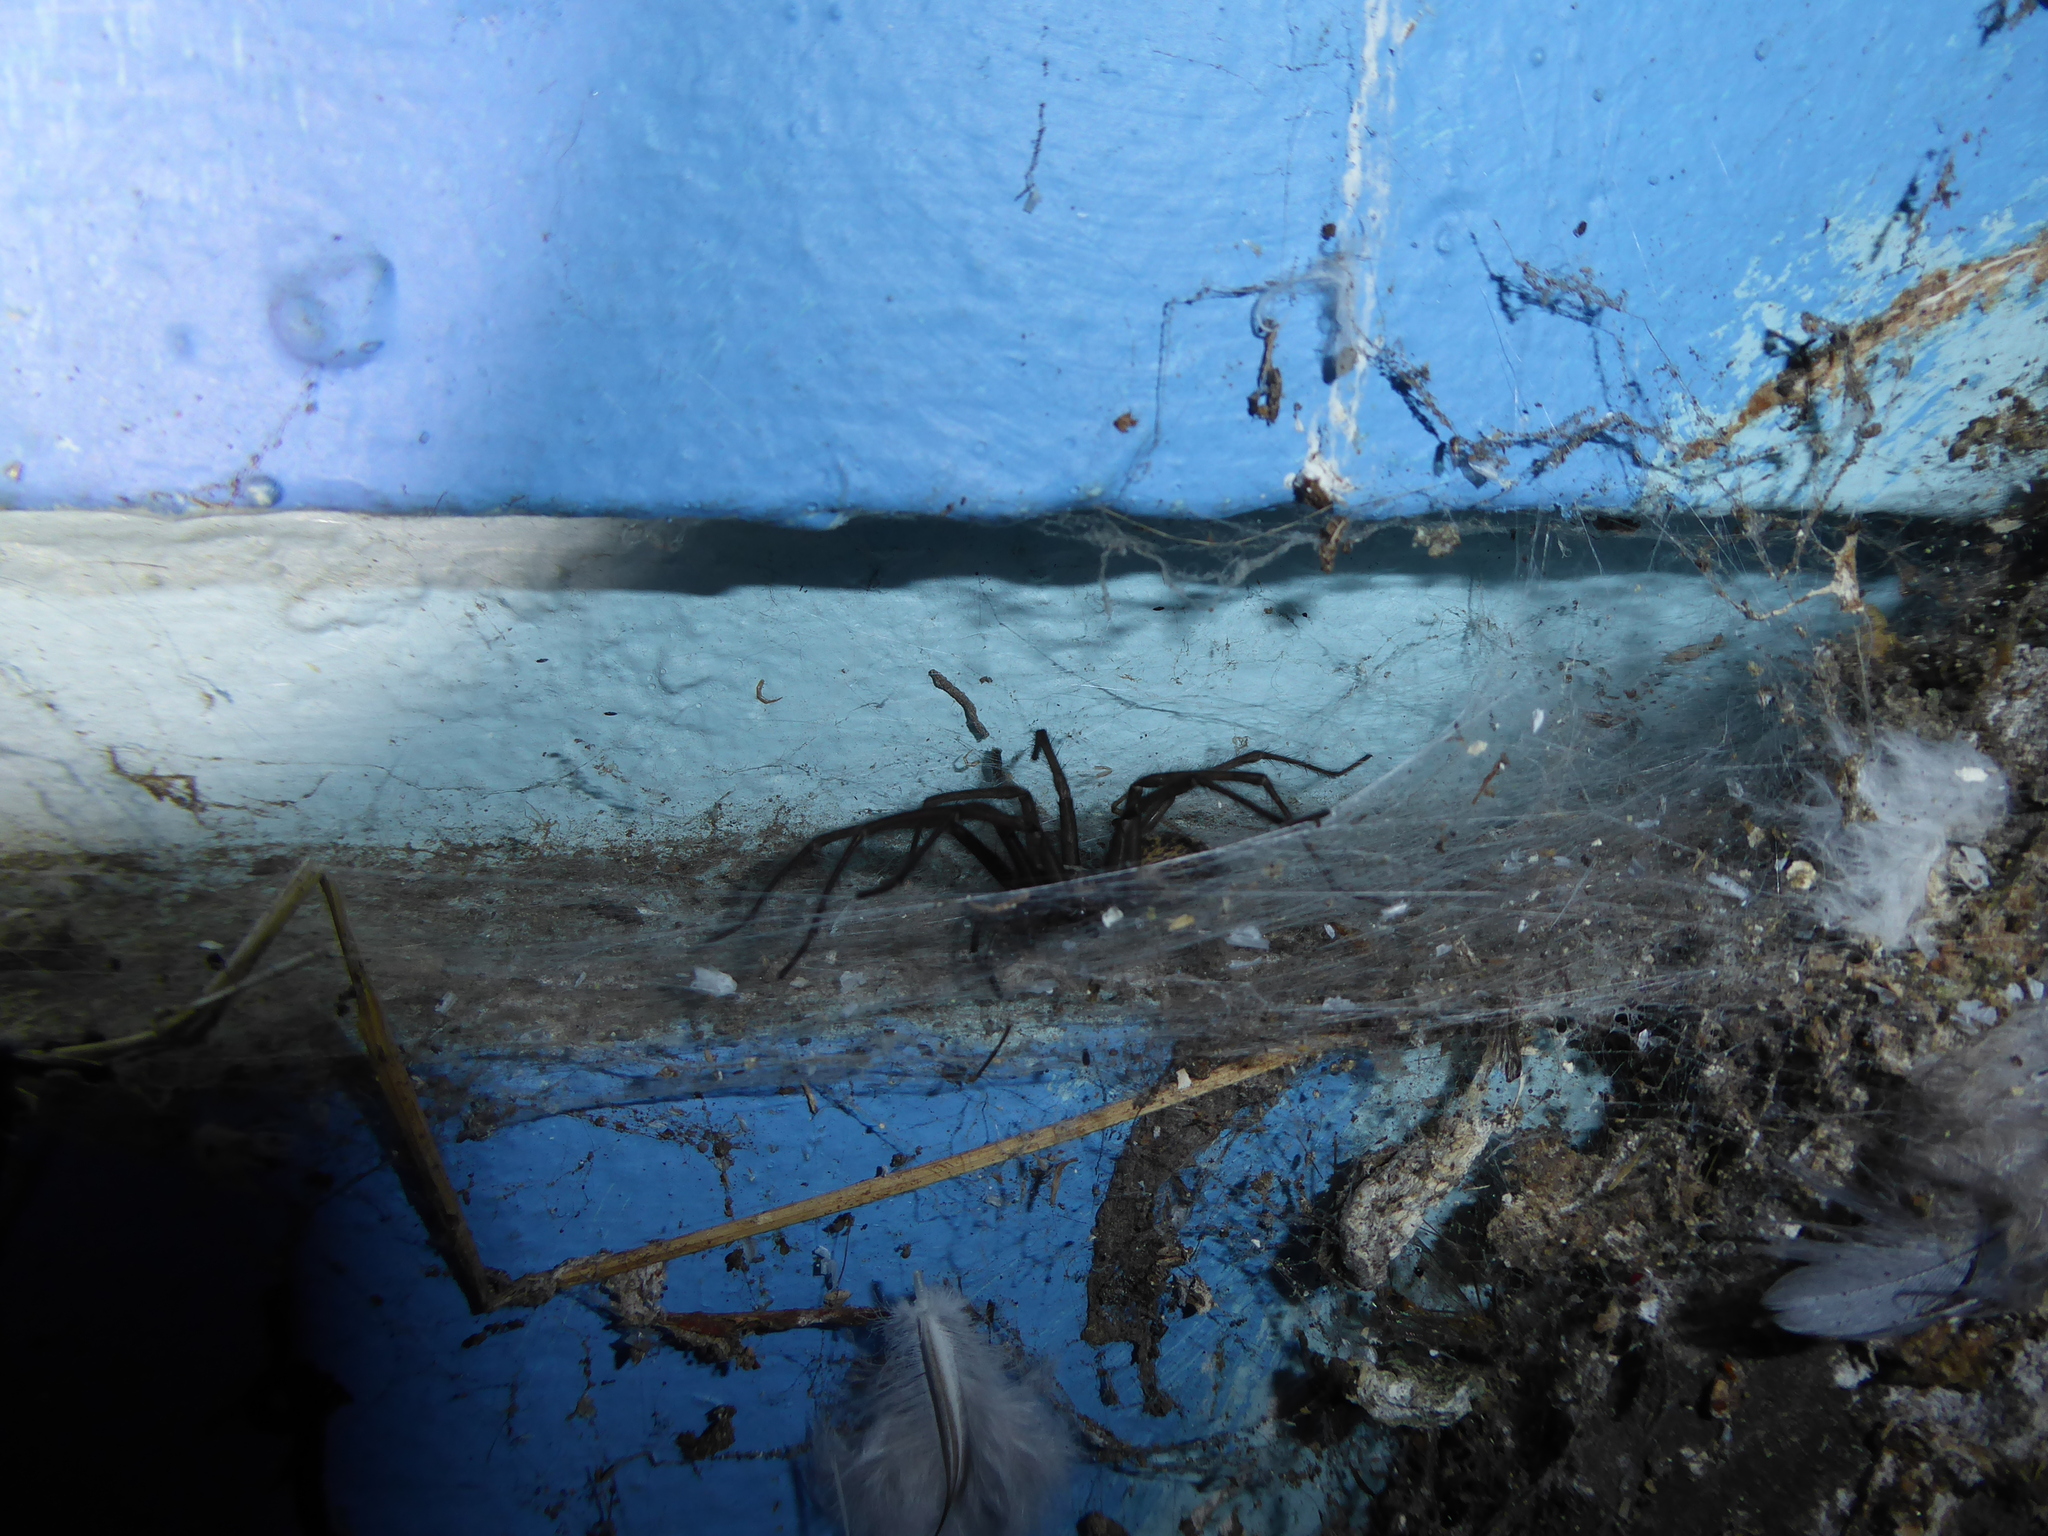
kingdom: Animalia
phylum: Arthropoda
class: Arachnida
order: Araneae
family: Agelenidae
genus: Eratigena
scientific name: Eratigena
